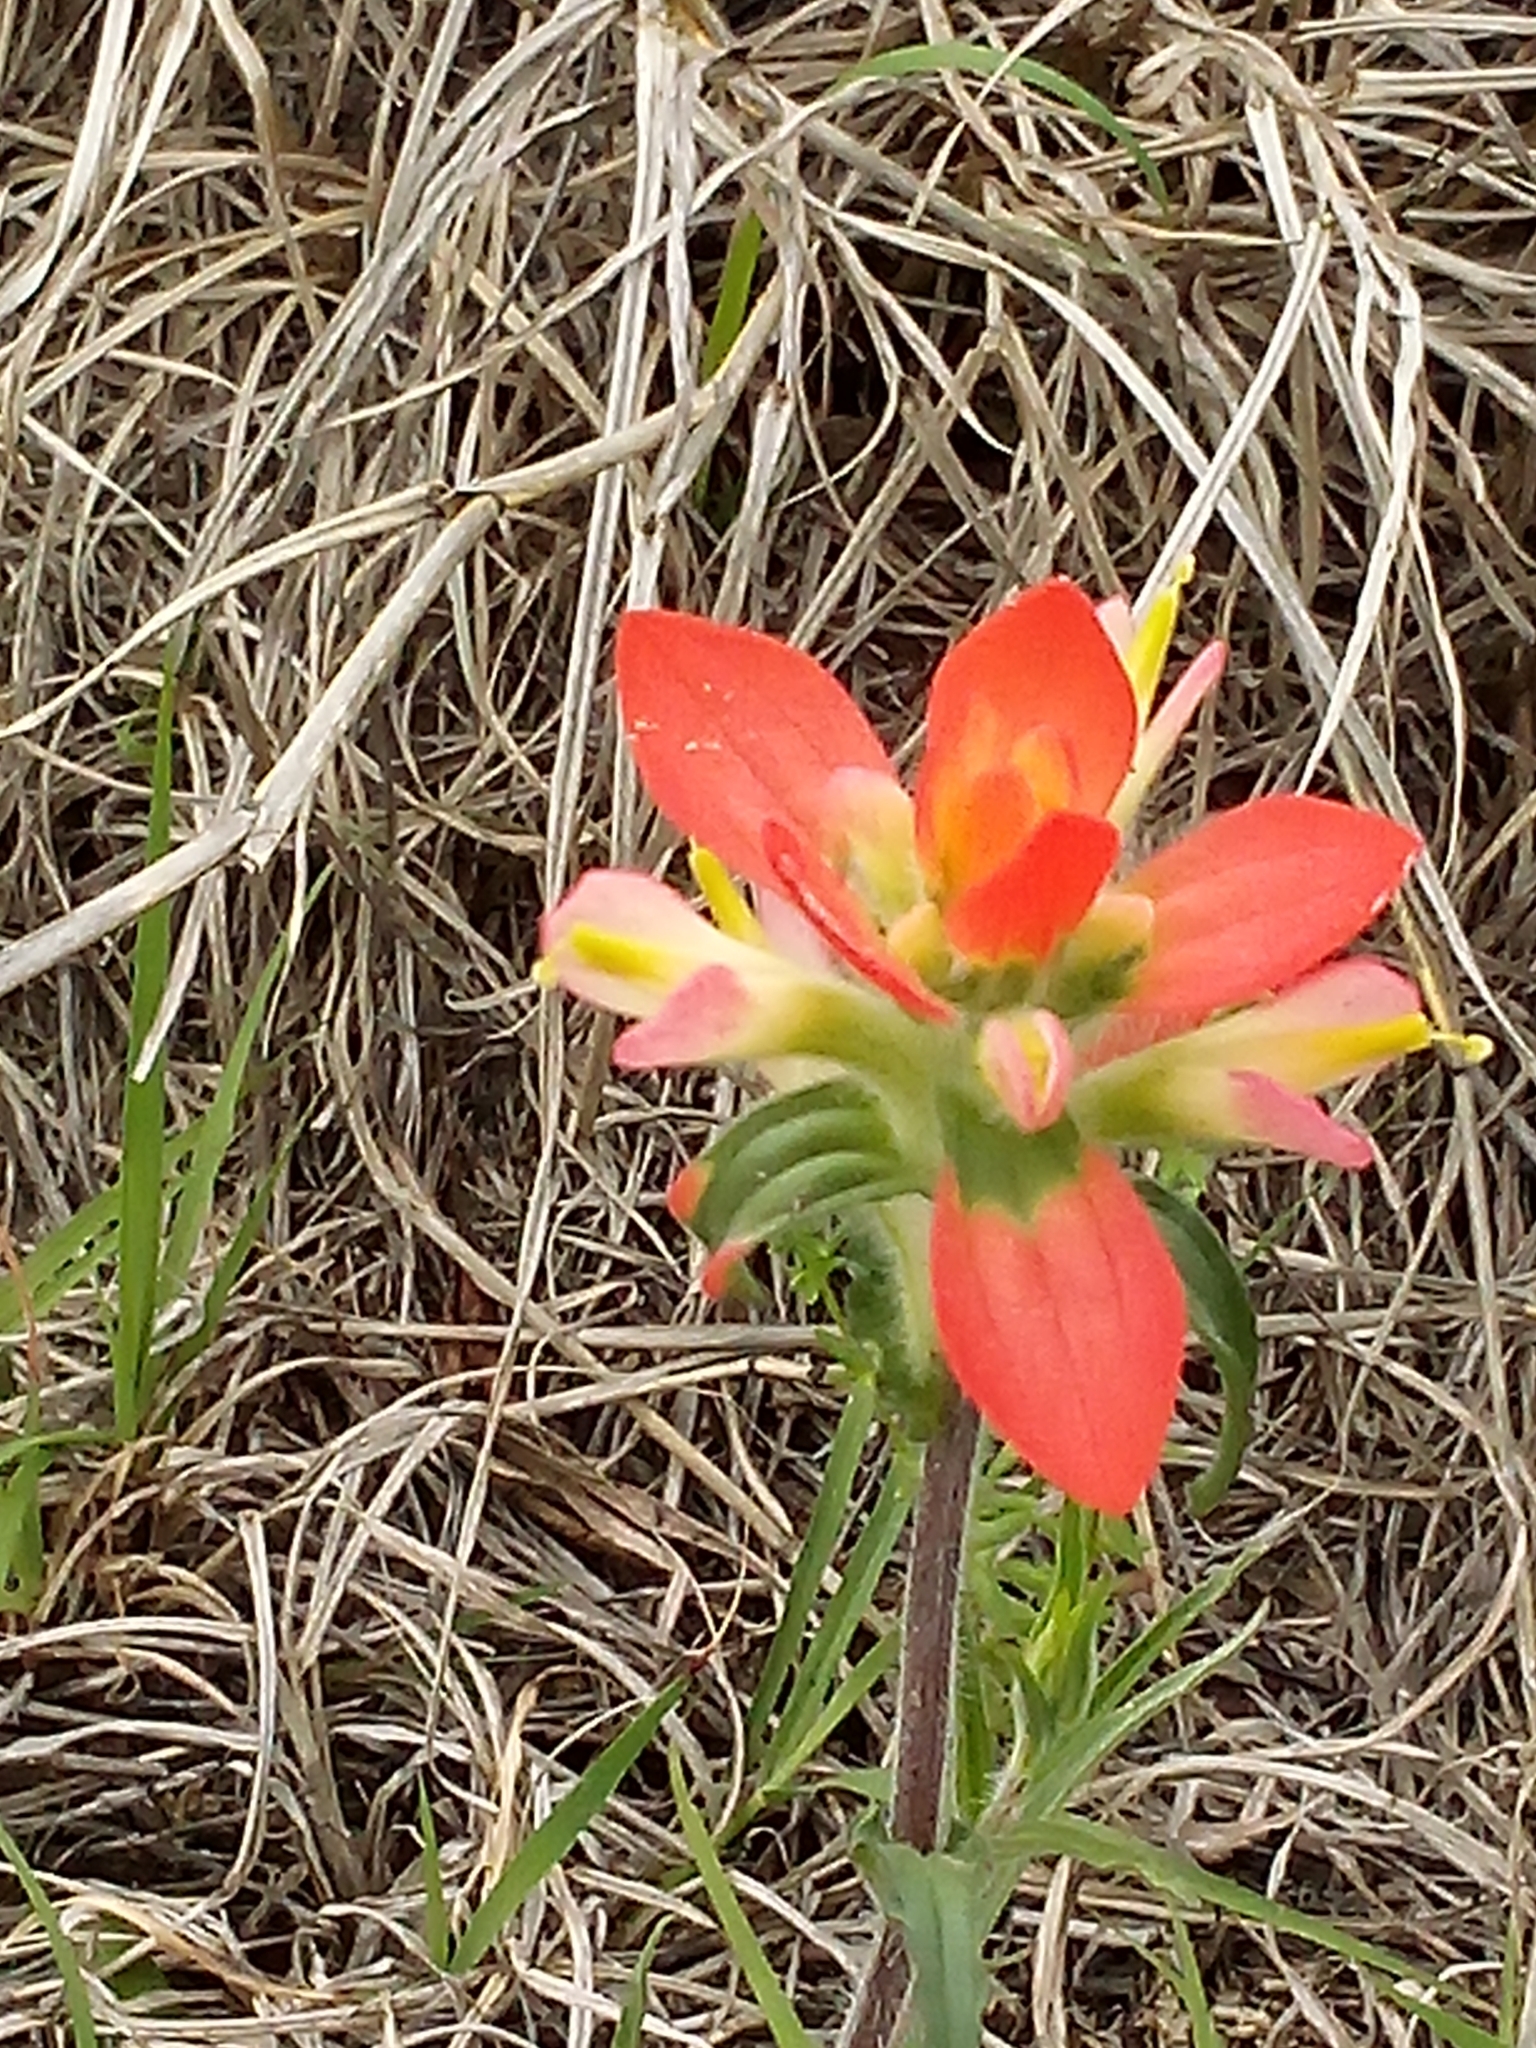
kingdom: Plantae
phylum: Tracheophyta
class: Magnoliopsida
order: Lamiales
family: Orobanchaceae
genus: Castilleja
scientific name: Castilleja indivisa
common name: Texas paintbrush
